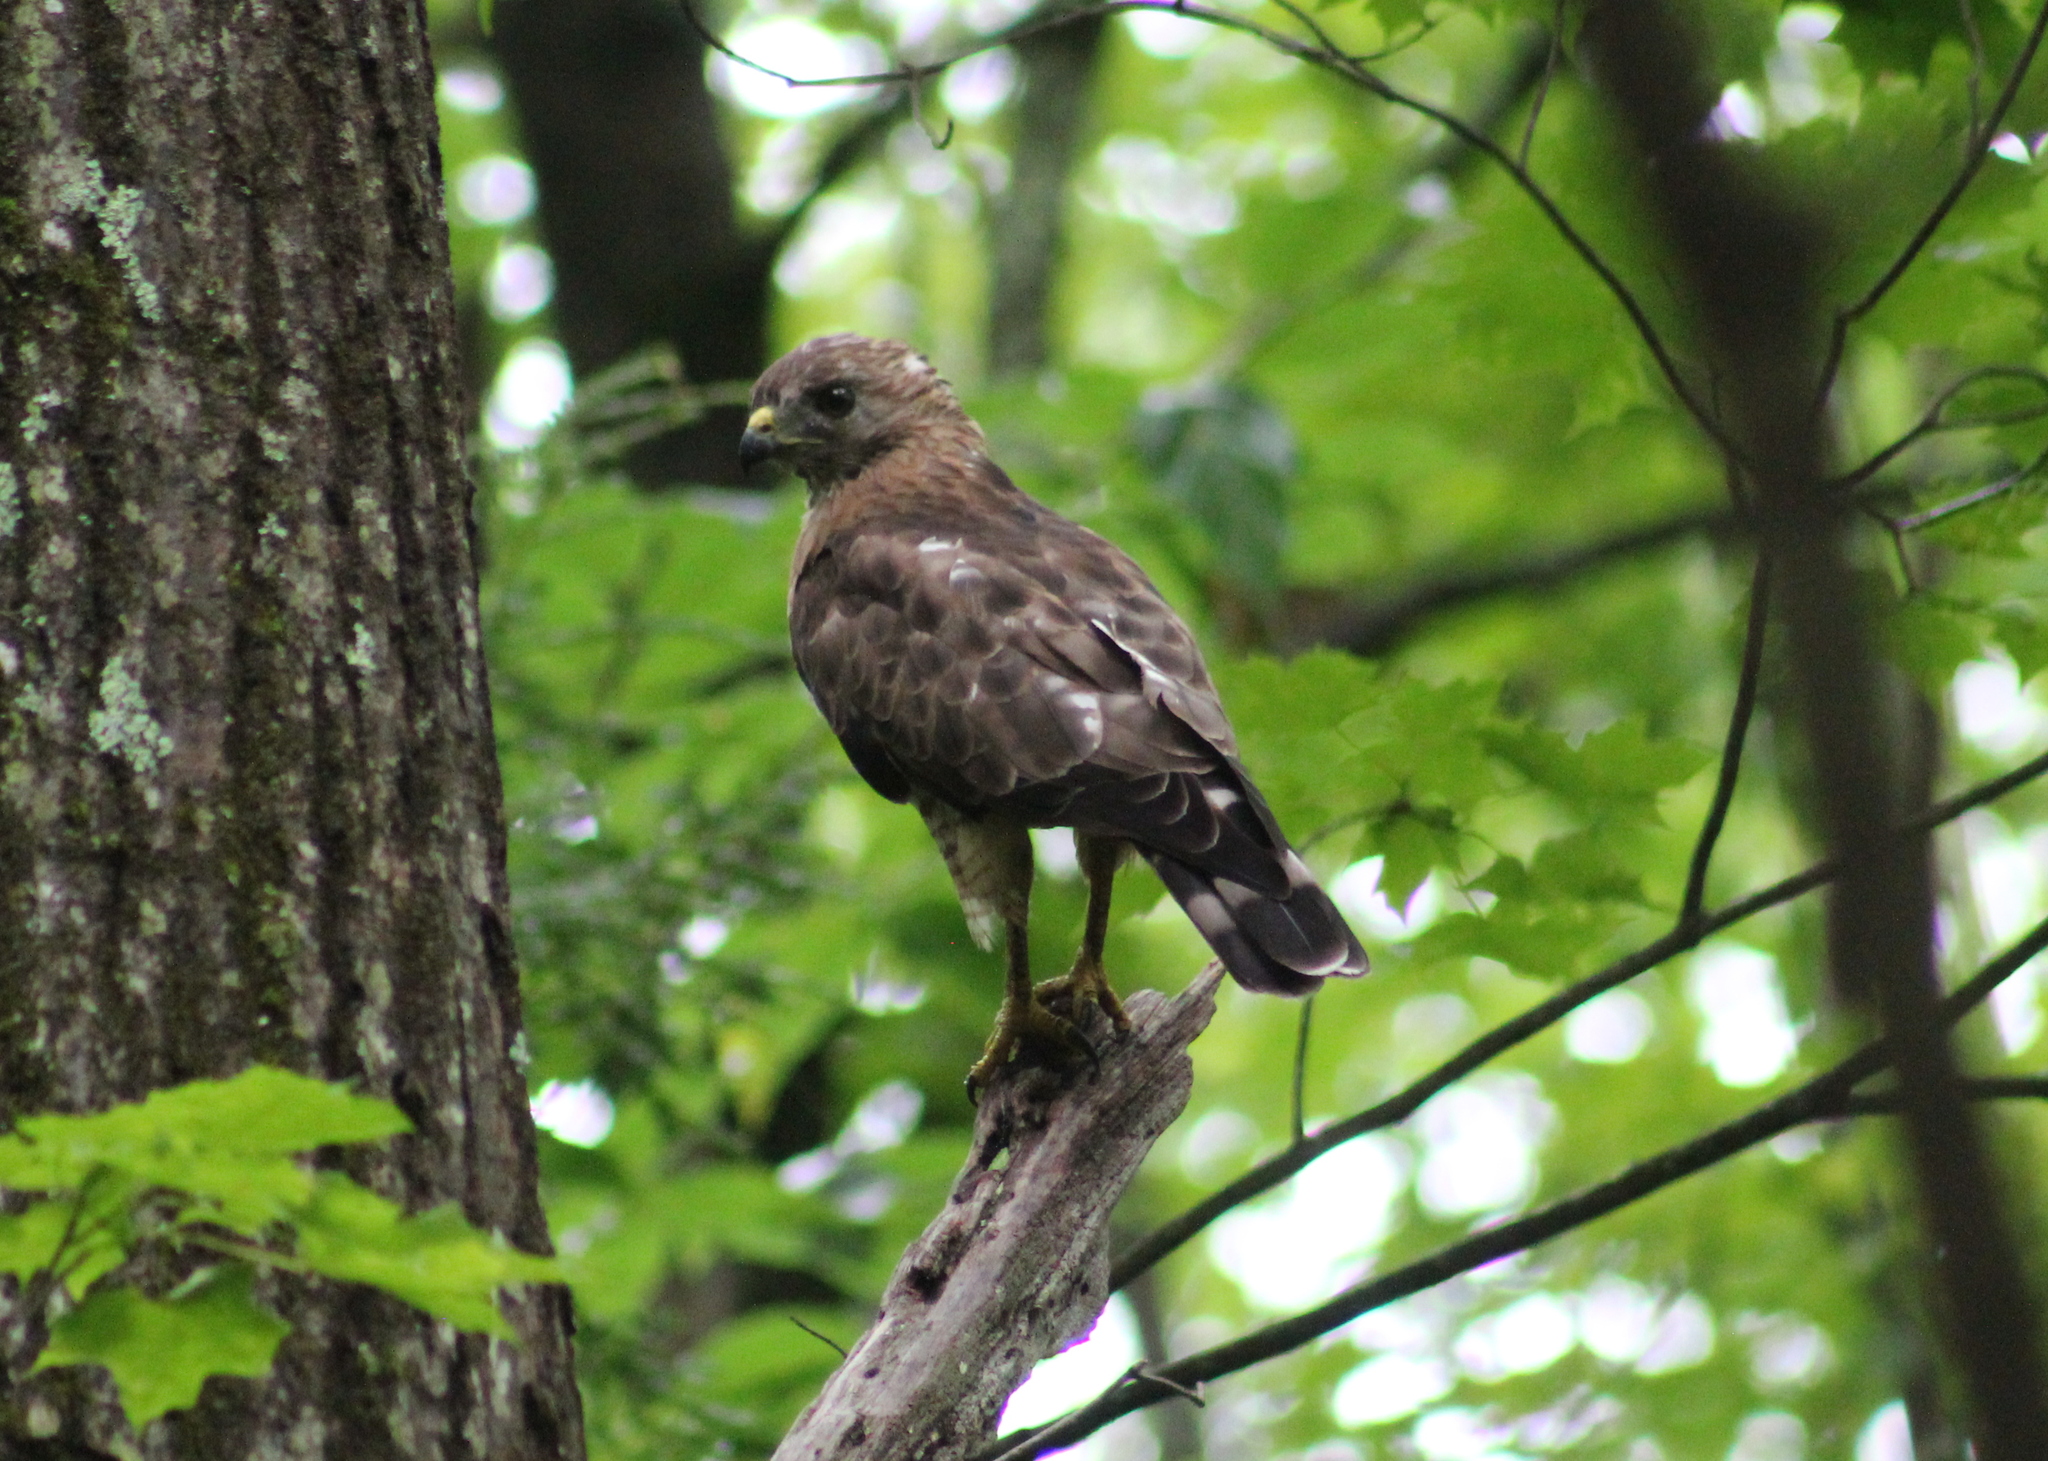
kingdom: Animalia
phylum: Chordata
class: Aves
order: Accipitriformes
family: Accipitridae
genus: Buteo
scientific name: Buteo platypterus
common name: Broad-winged hawk
